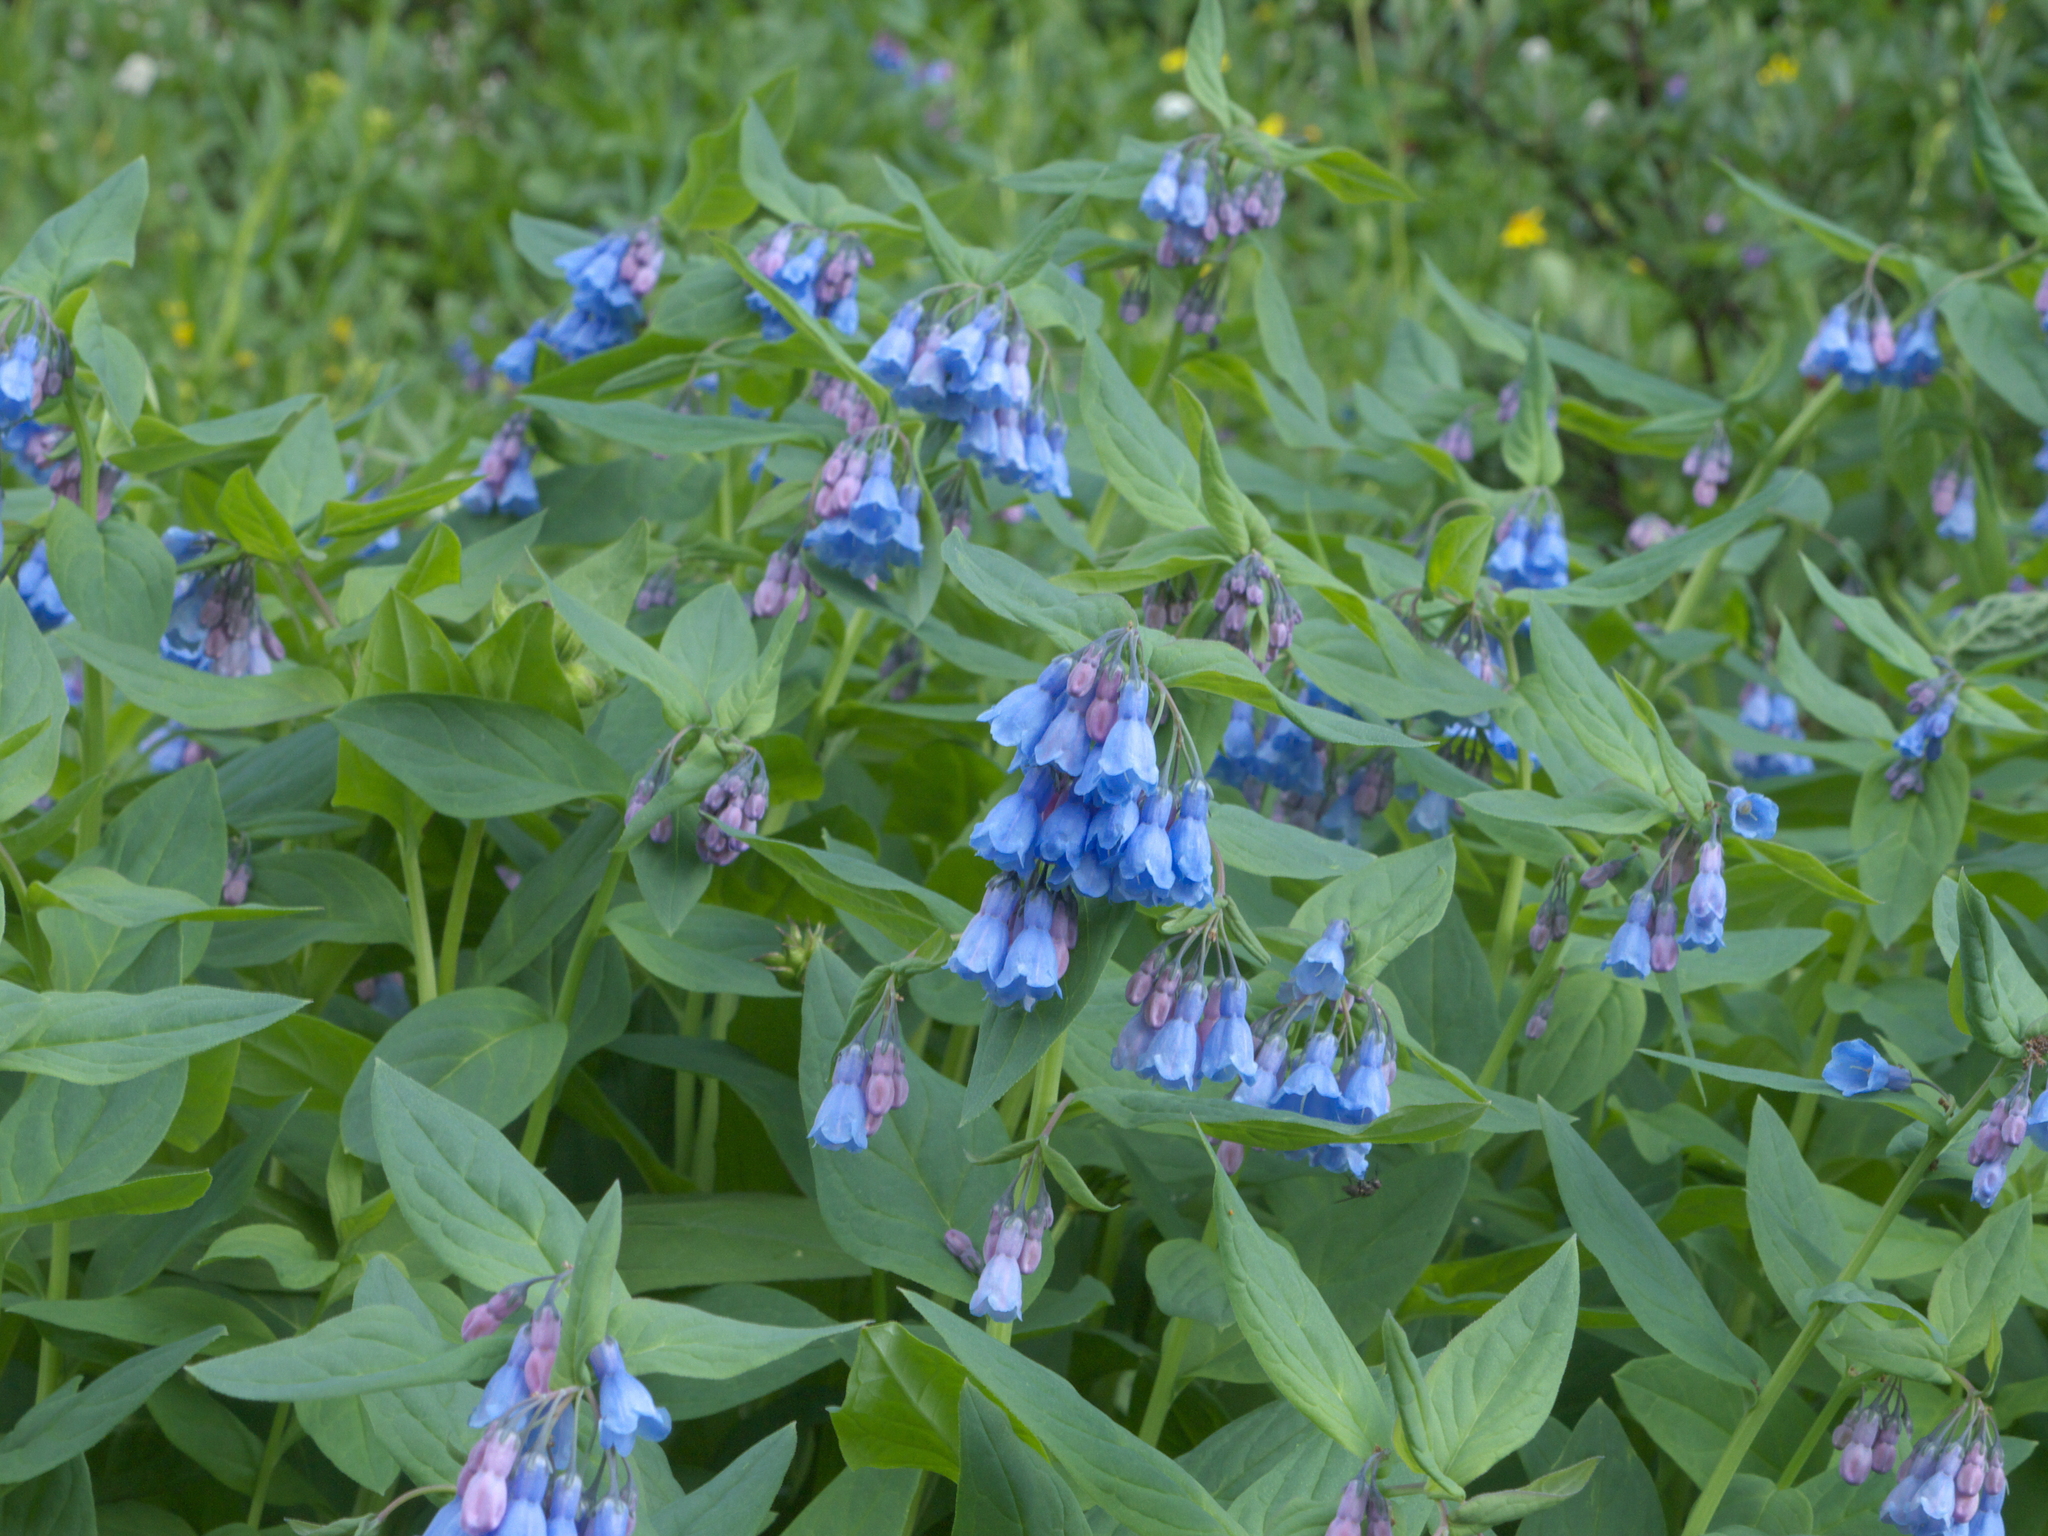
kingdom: Plantae
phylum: Tracheophyta
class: Magnoliopsida
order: Boraginales
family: Boraginaceae
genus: Mertensia
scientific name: Mertensia ciliata
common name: Tall chiming-bells
